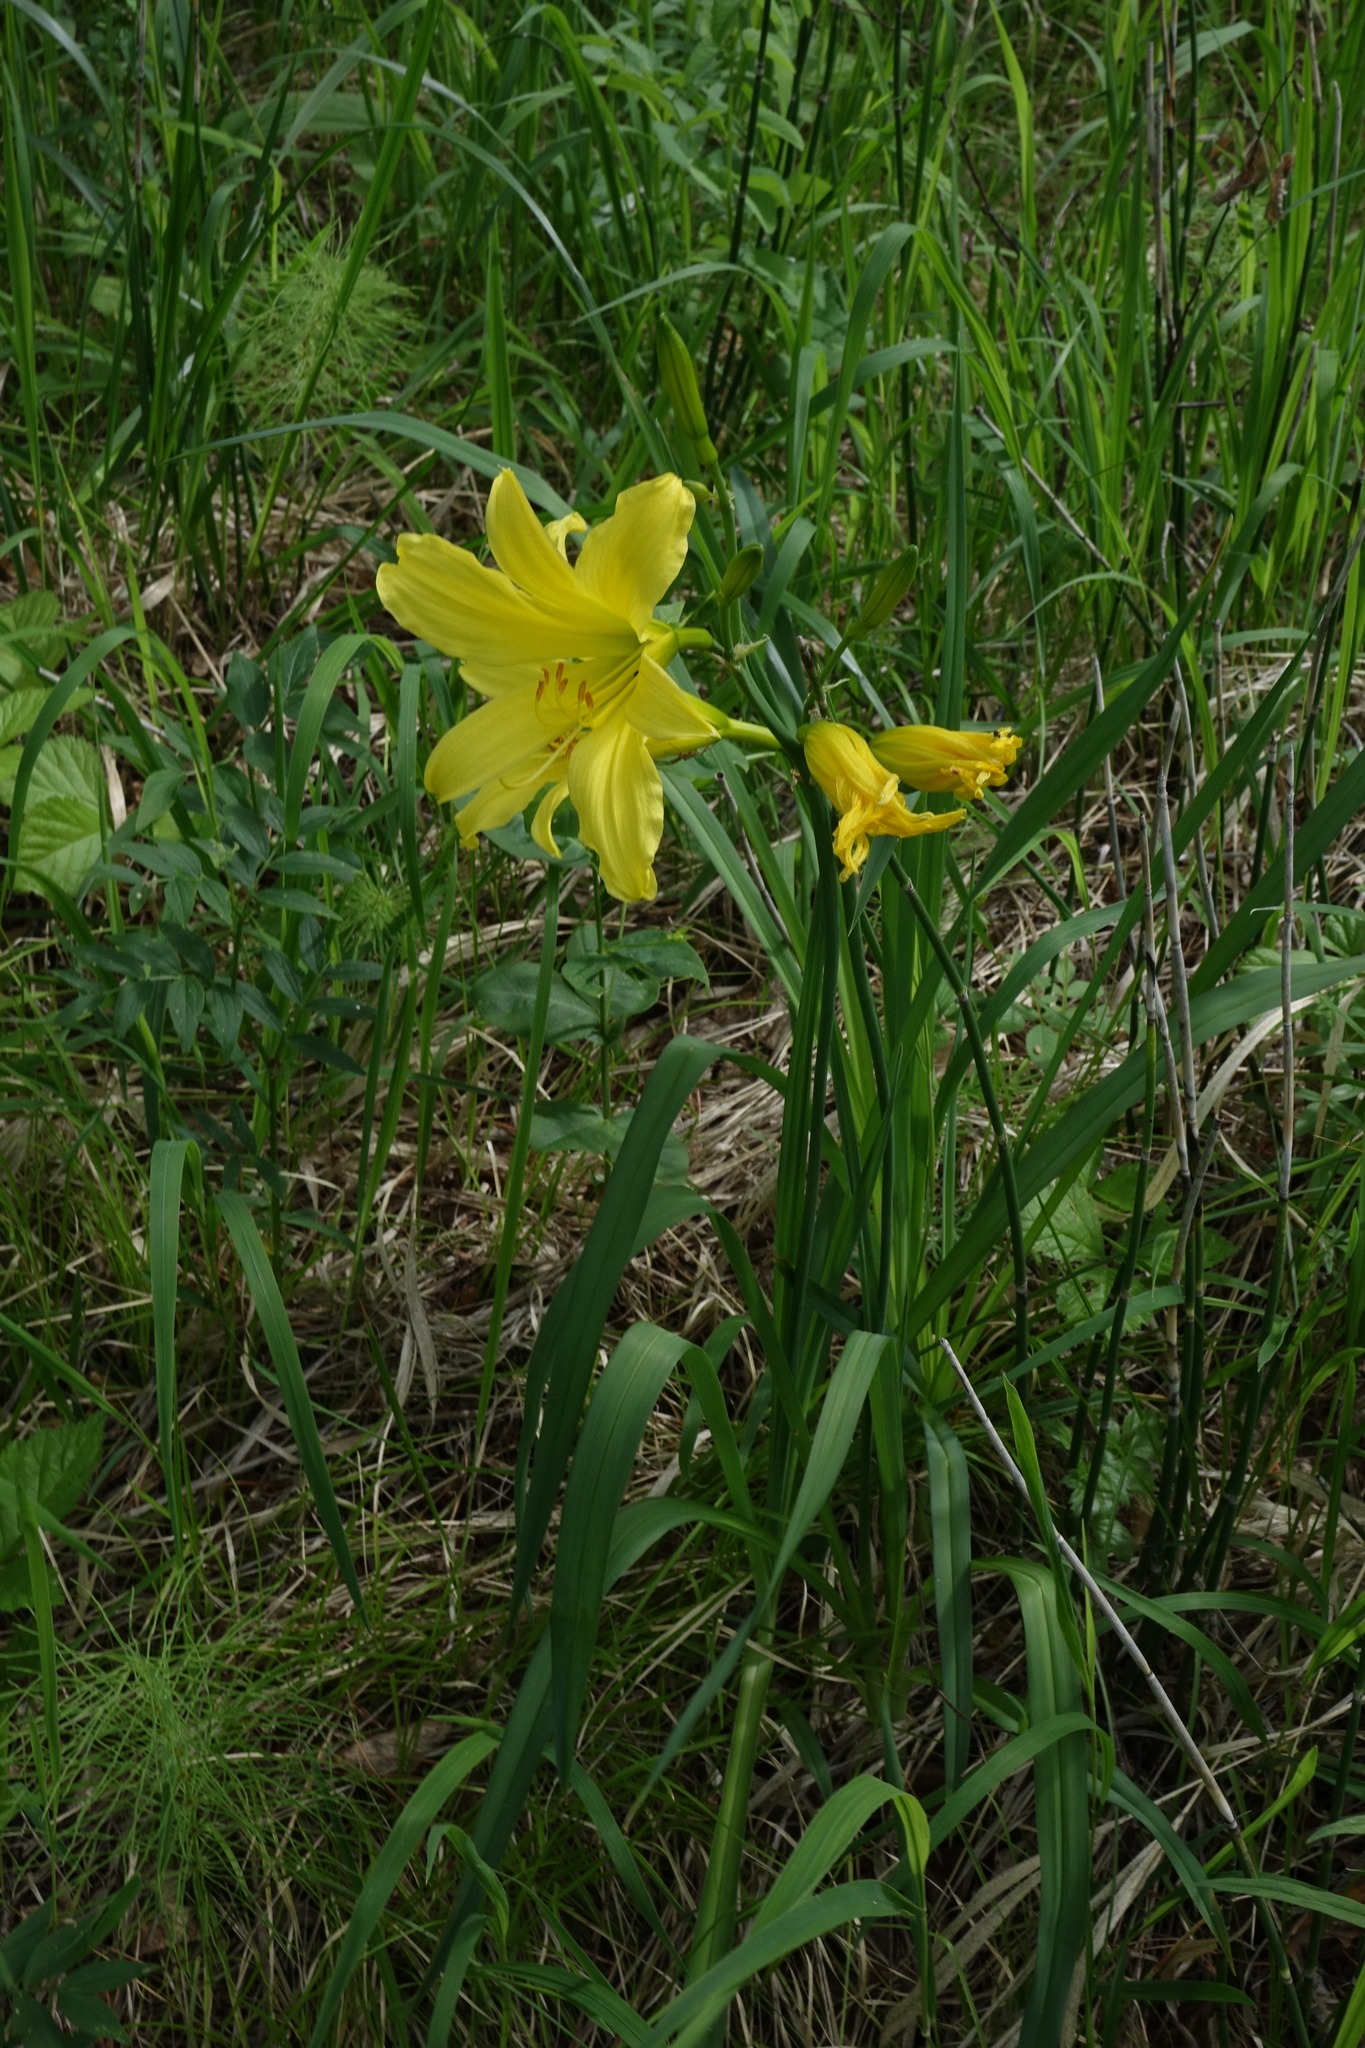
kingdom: Plantae
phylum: Tracheophyta
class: Liliopsida
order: Asparagales
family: Asphodelaceae
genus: Hemerocallis
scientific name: Hemerocallis minor
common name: Small daylily
